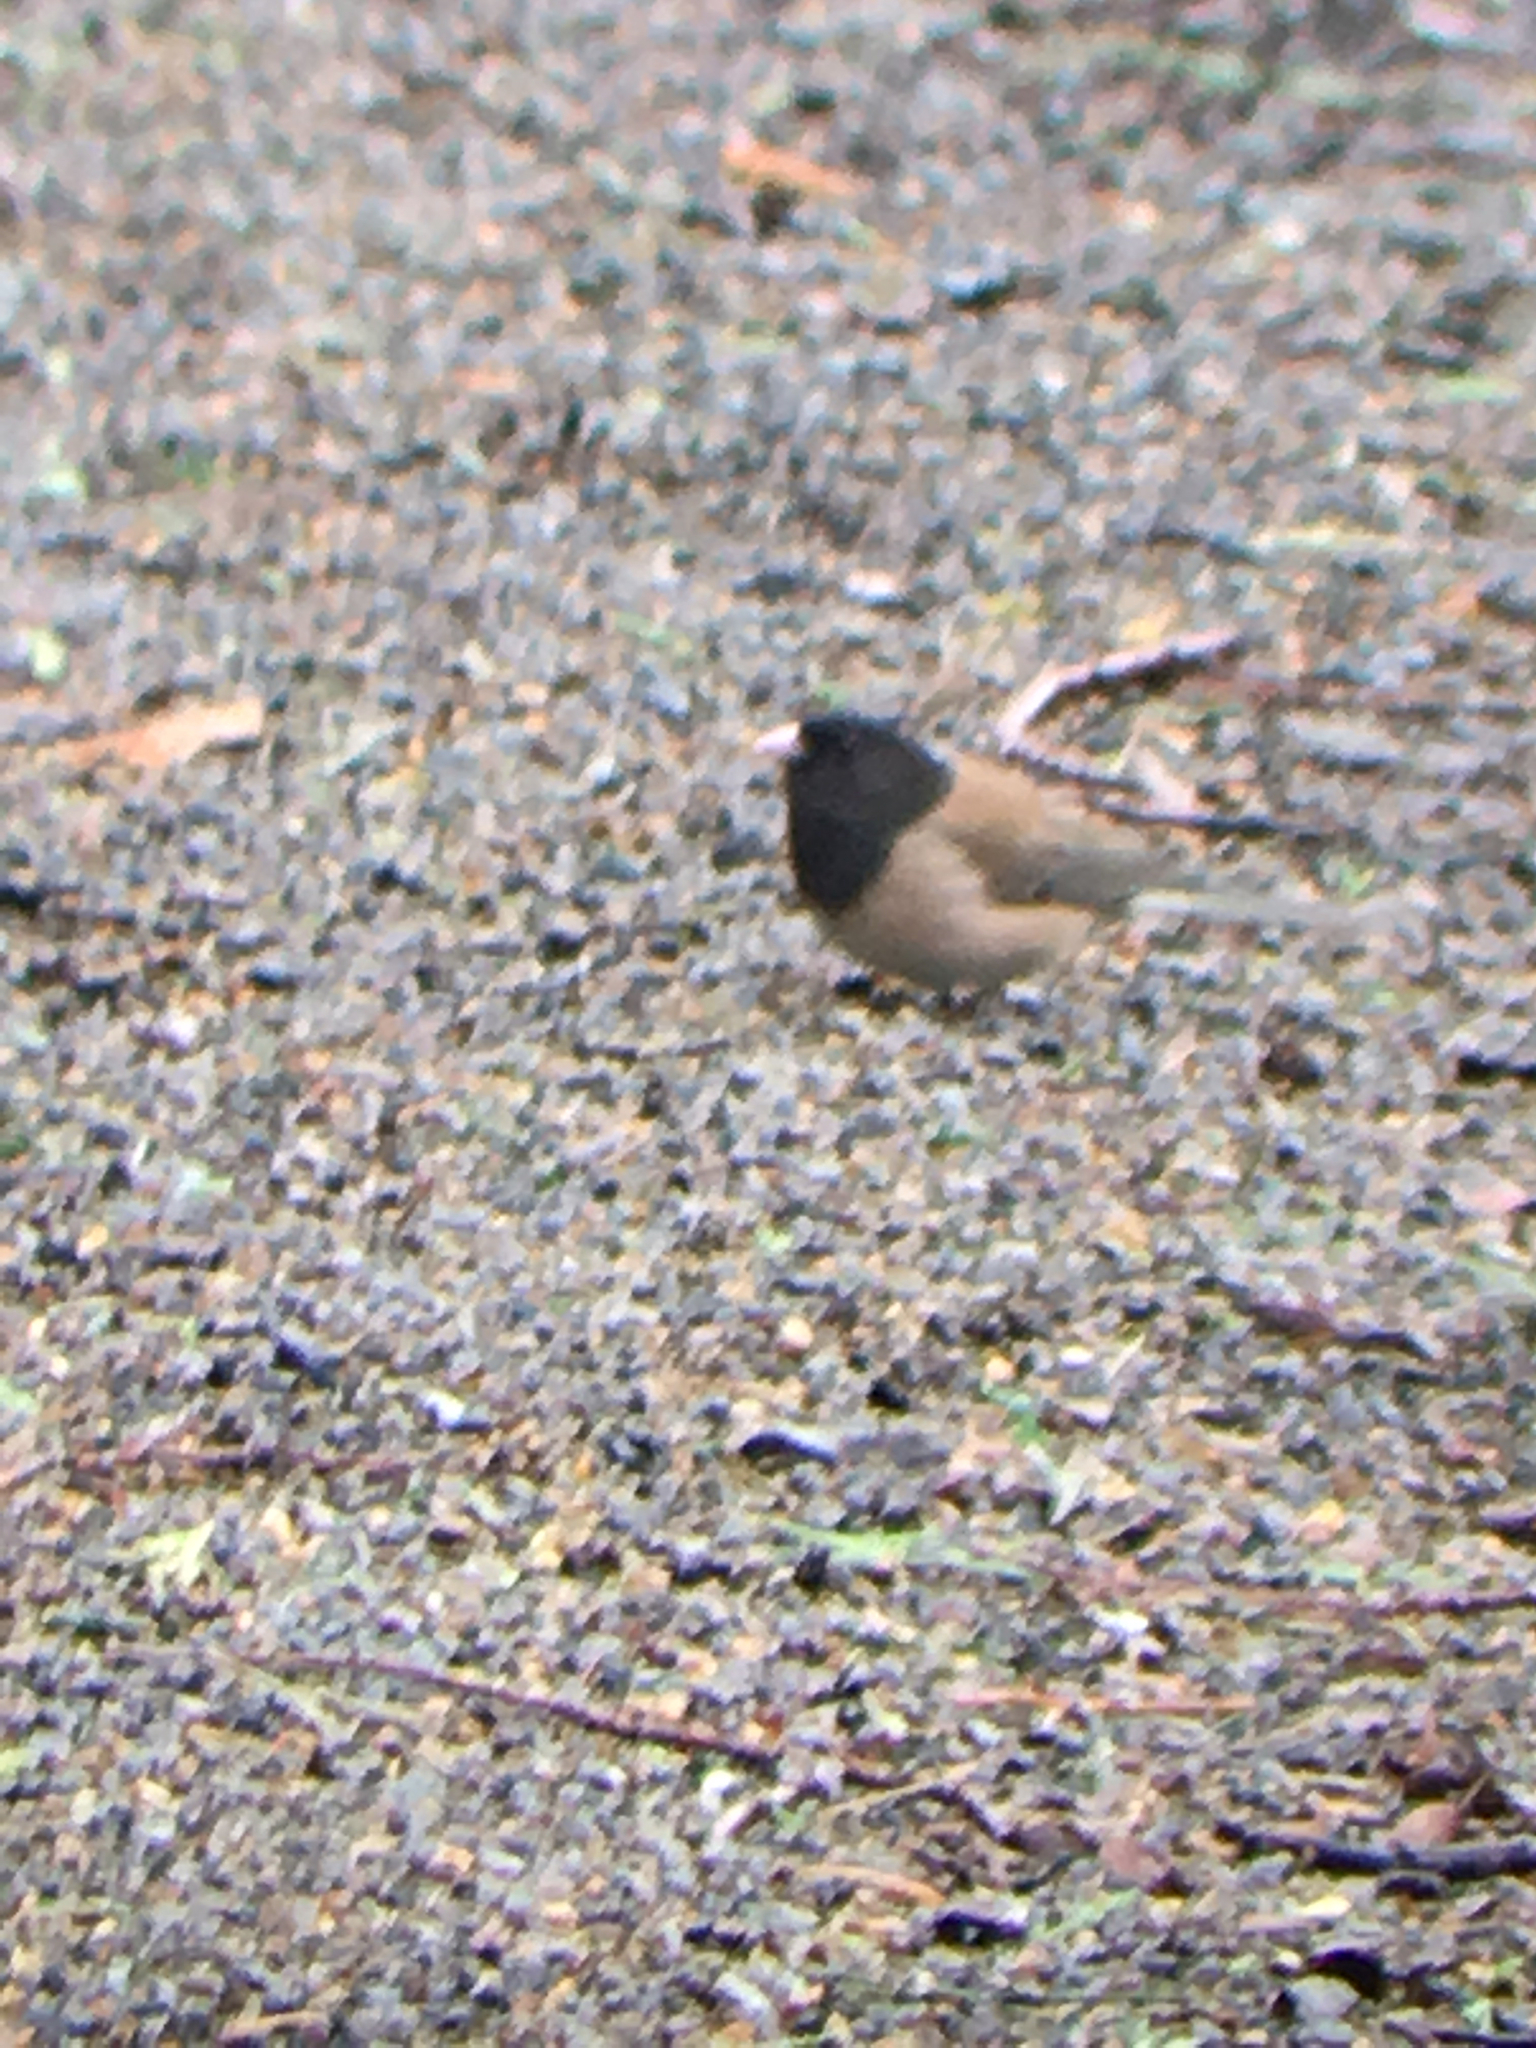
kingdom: Animalia
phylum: Chordata
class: Aves
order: Passeriformes
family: Passerellidae
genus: Junco
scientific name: Junco hyemalis
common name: Dark-eyed junco
